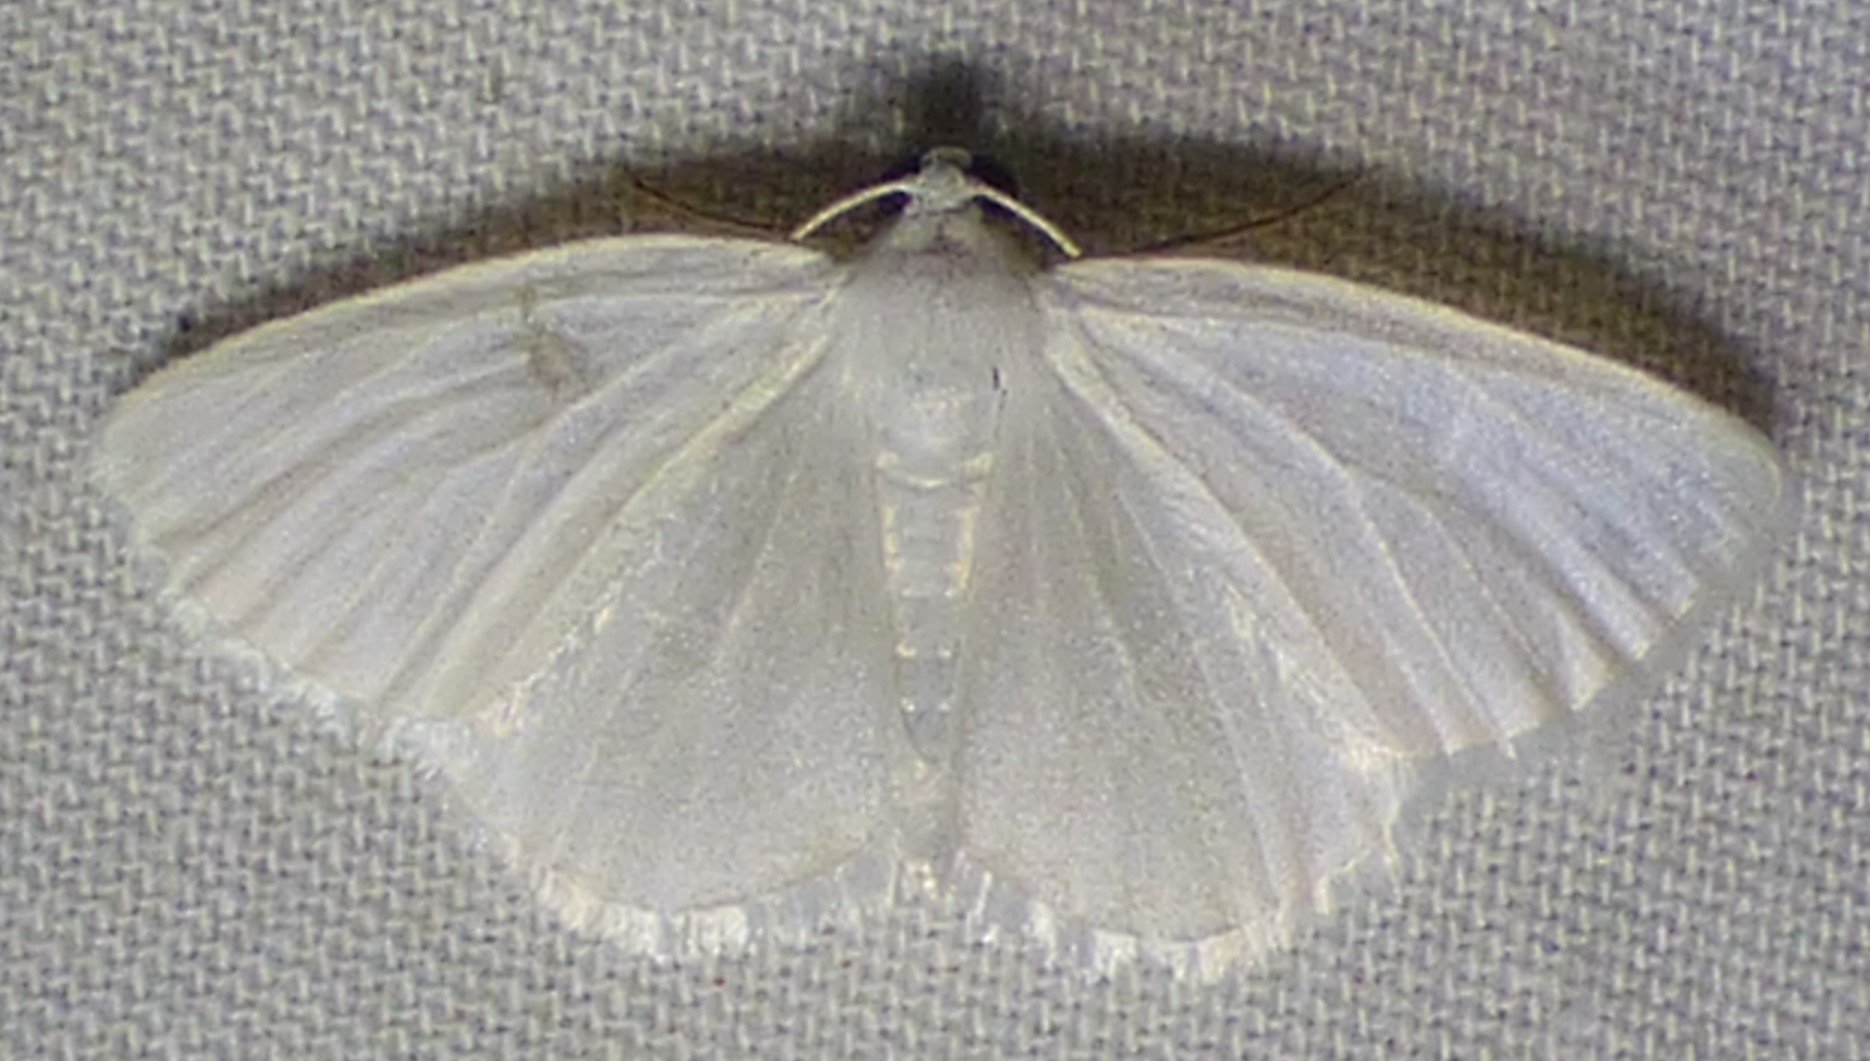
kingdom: Animalia
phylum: Arthropoda
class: Insecta
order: Lepidoptera
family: Geometridae
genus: Lomographa
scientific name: Lomographa vestaliata
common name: White spring moth
